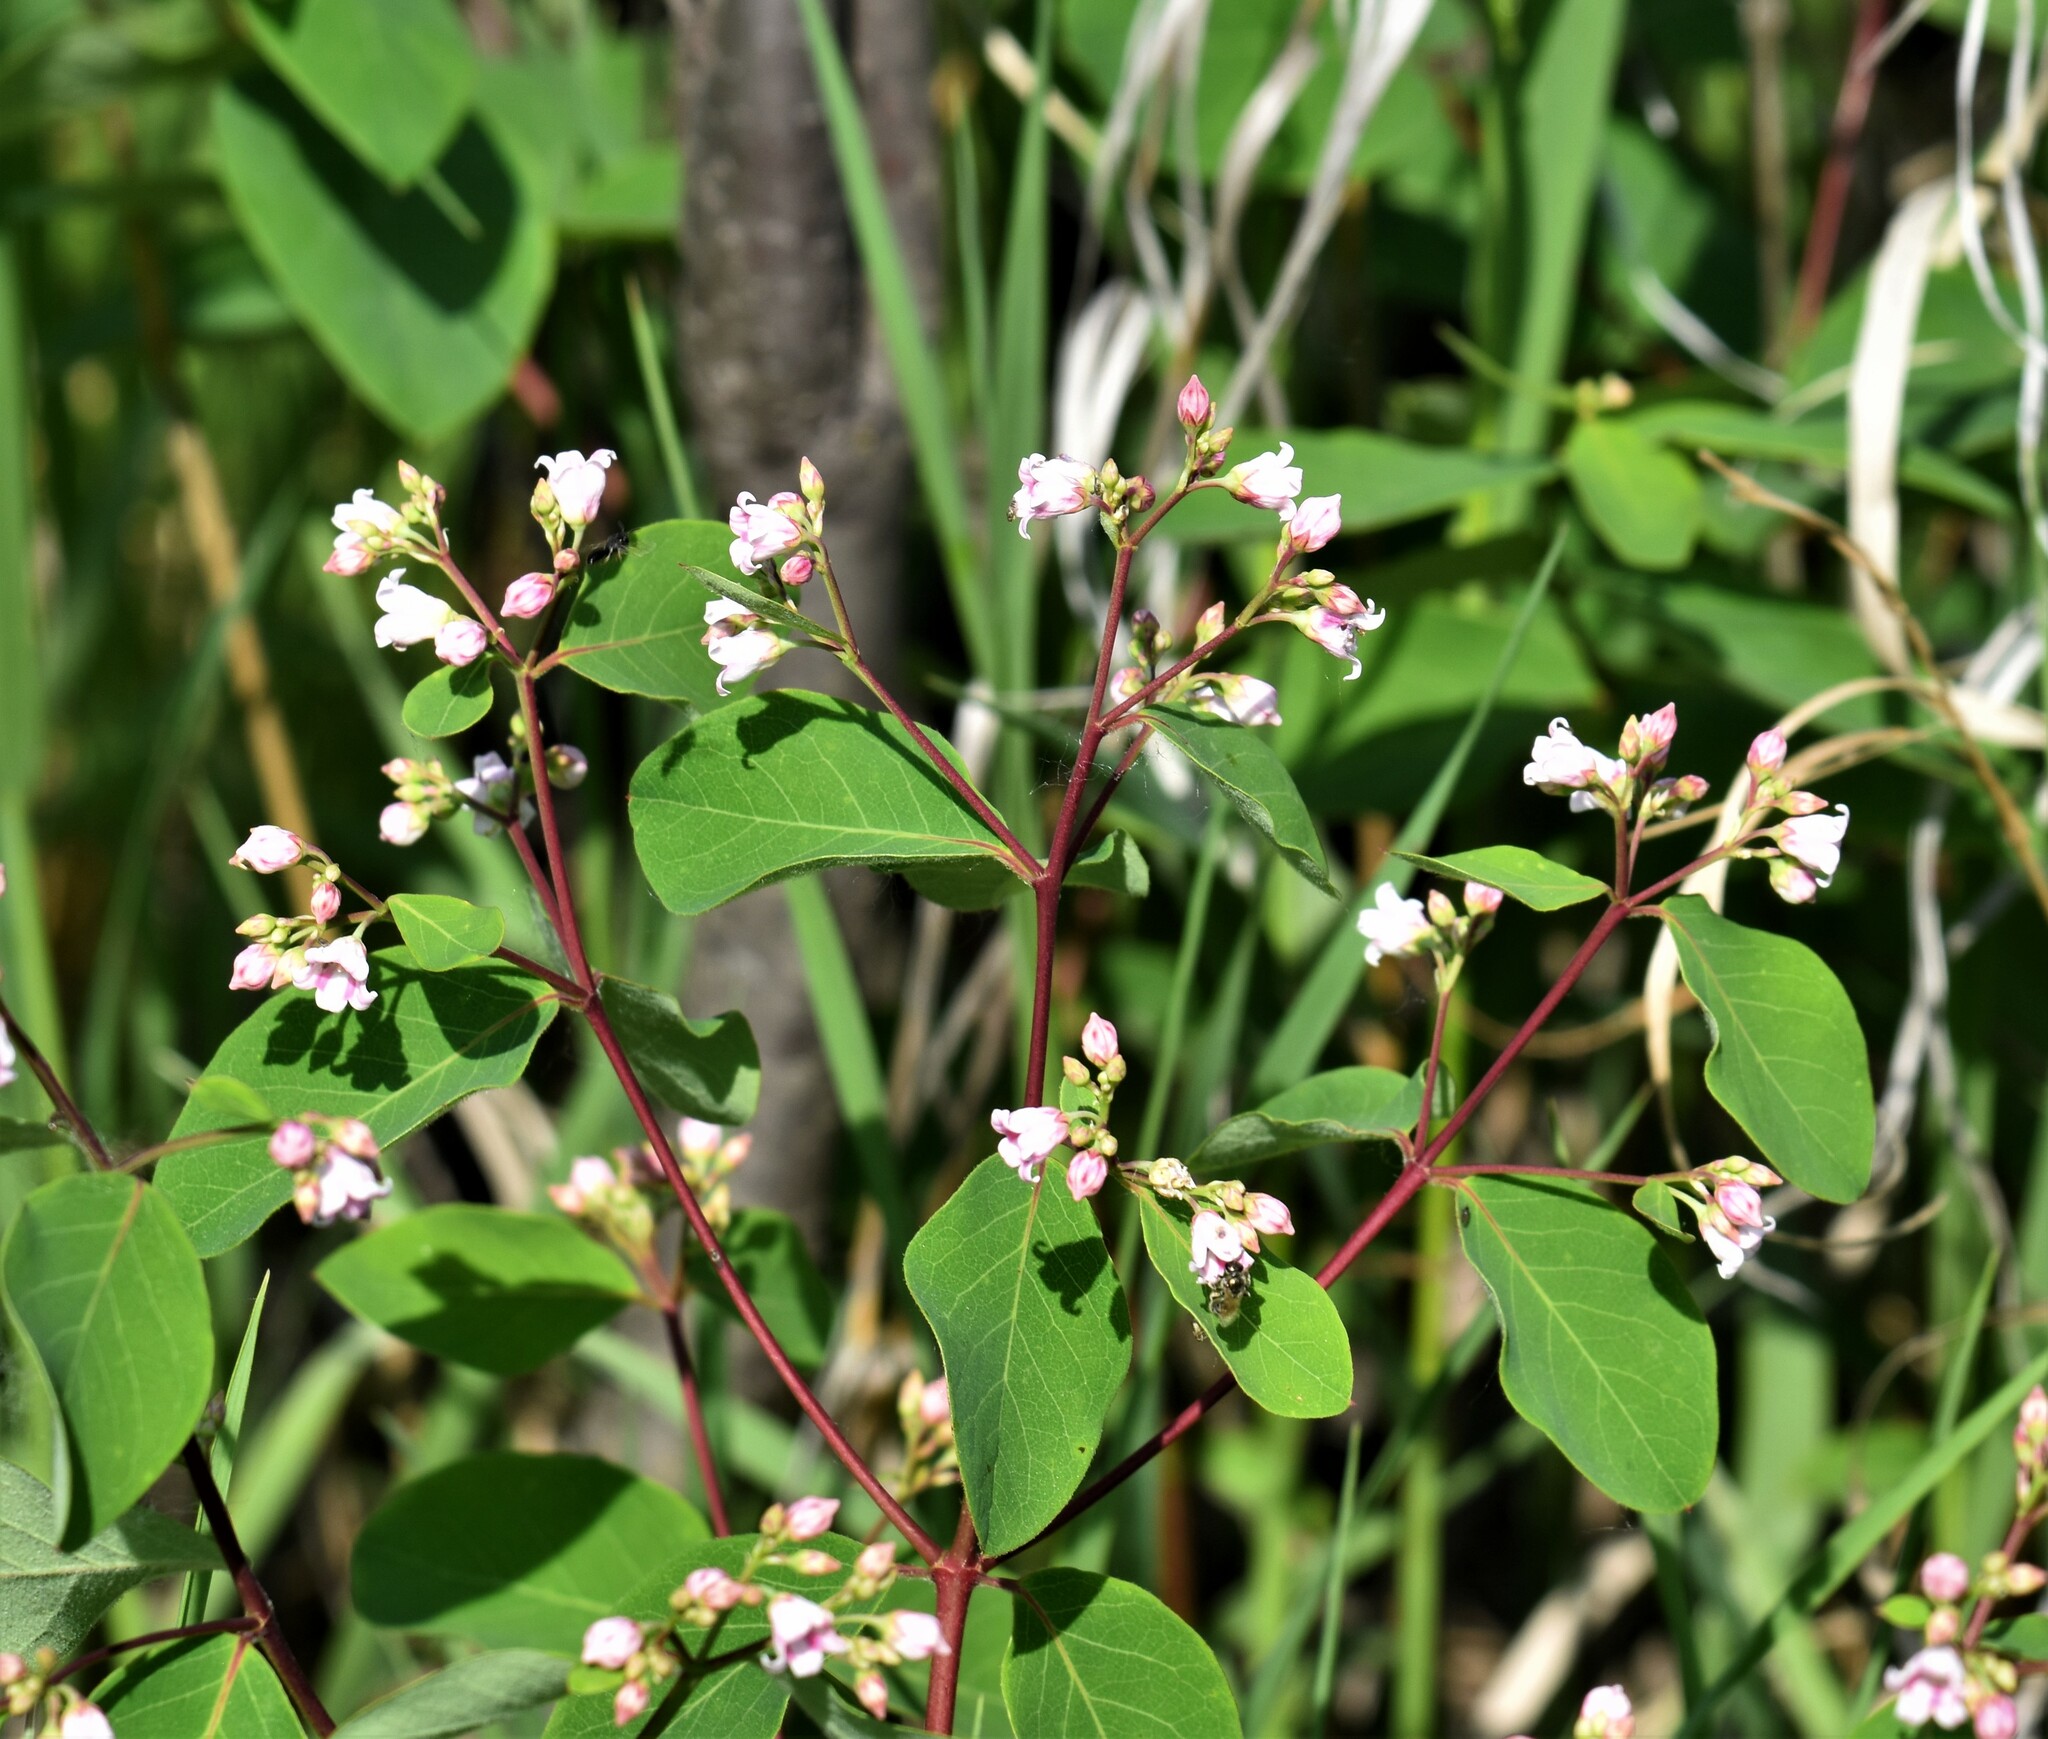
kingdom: Plantae
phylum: Tracheophyta
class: Magnoliopsida
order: Gentianales
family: Apocynaceae
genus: Apocynum
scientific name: Apocynum androsaemifolium
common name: Spreading dogbane
